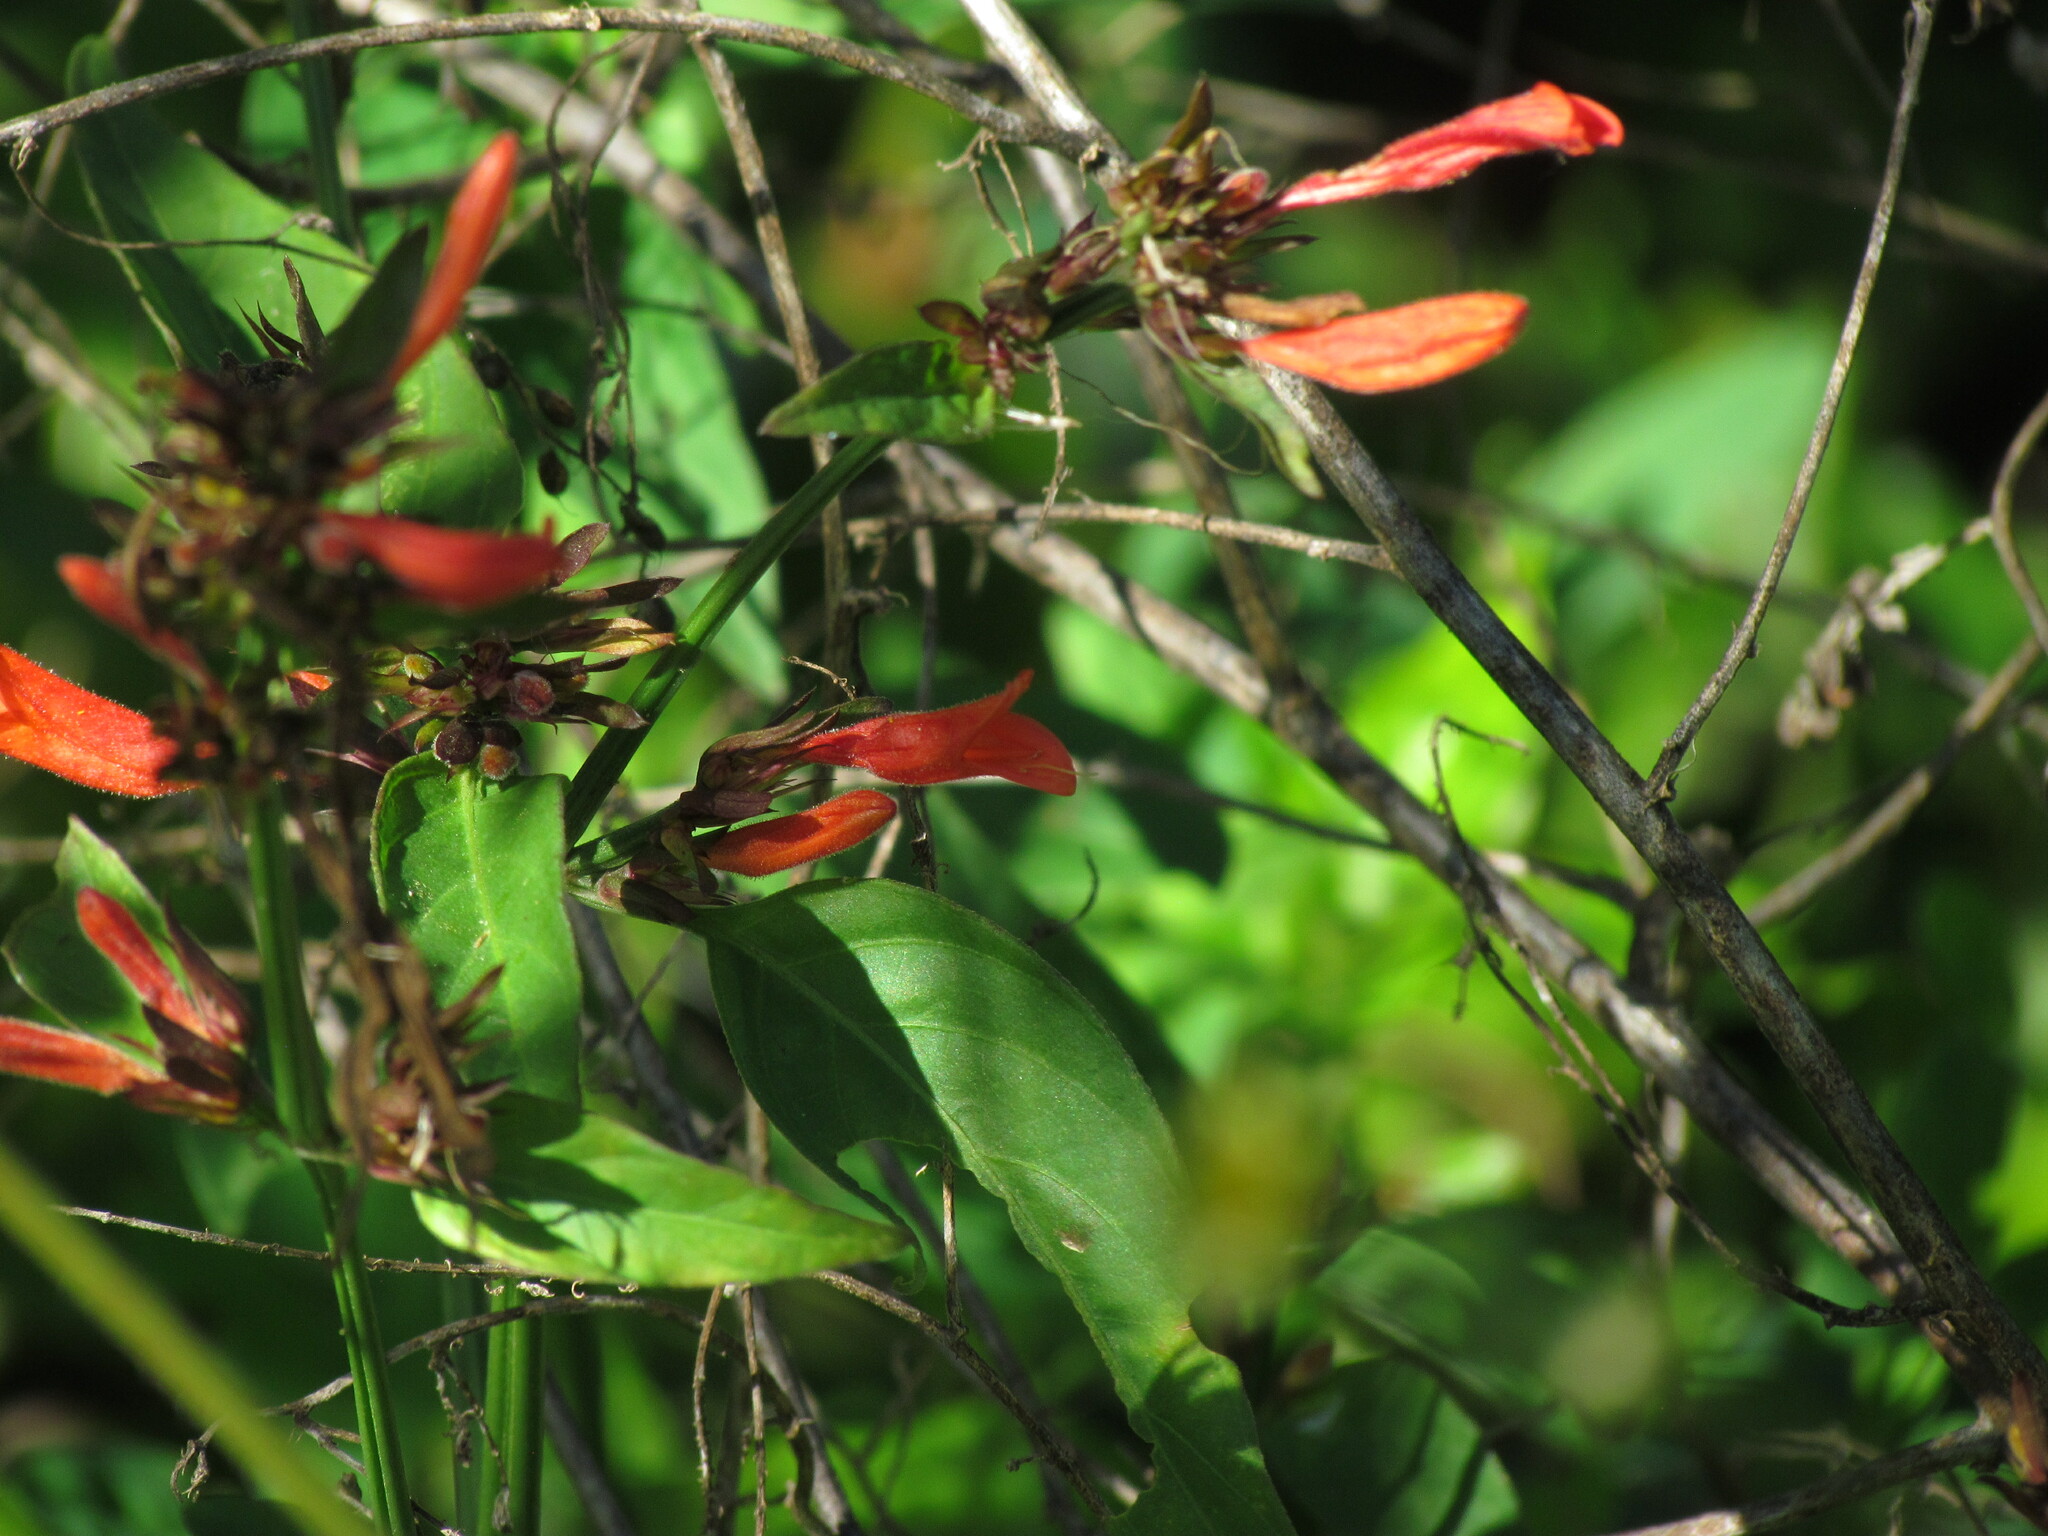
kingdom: Plantae
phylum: Tracheophyta
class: Magnoliopsida
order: Lamiales
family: Acanthaceae
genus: Dicliptera
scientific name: Dicliptera squarrosa
